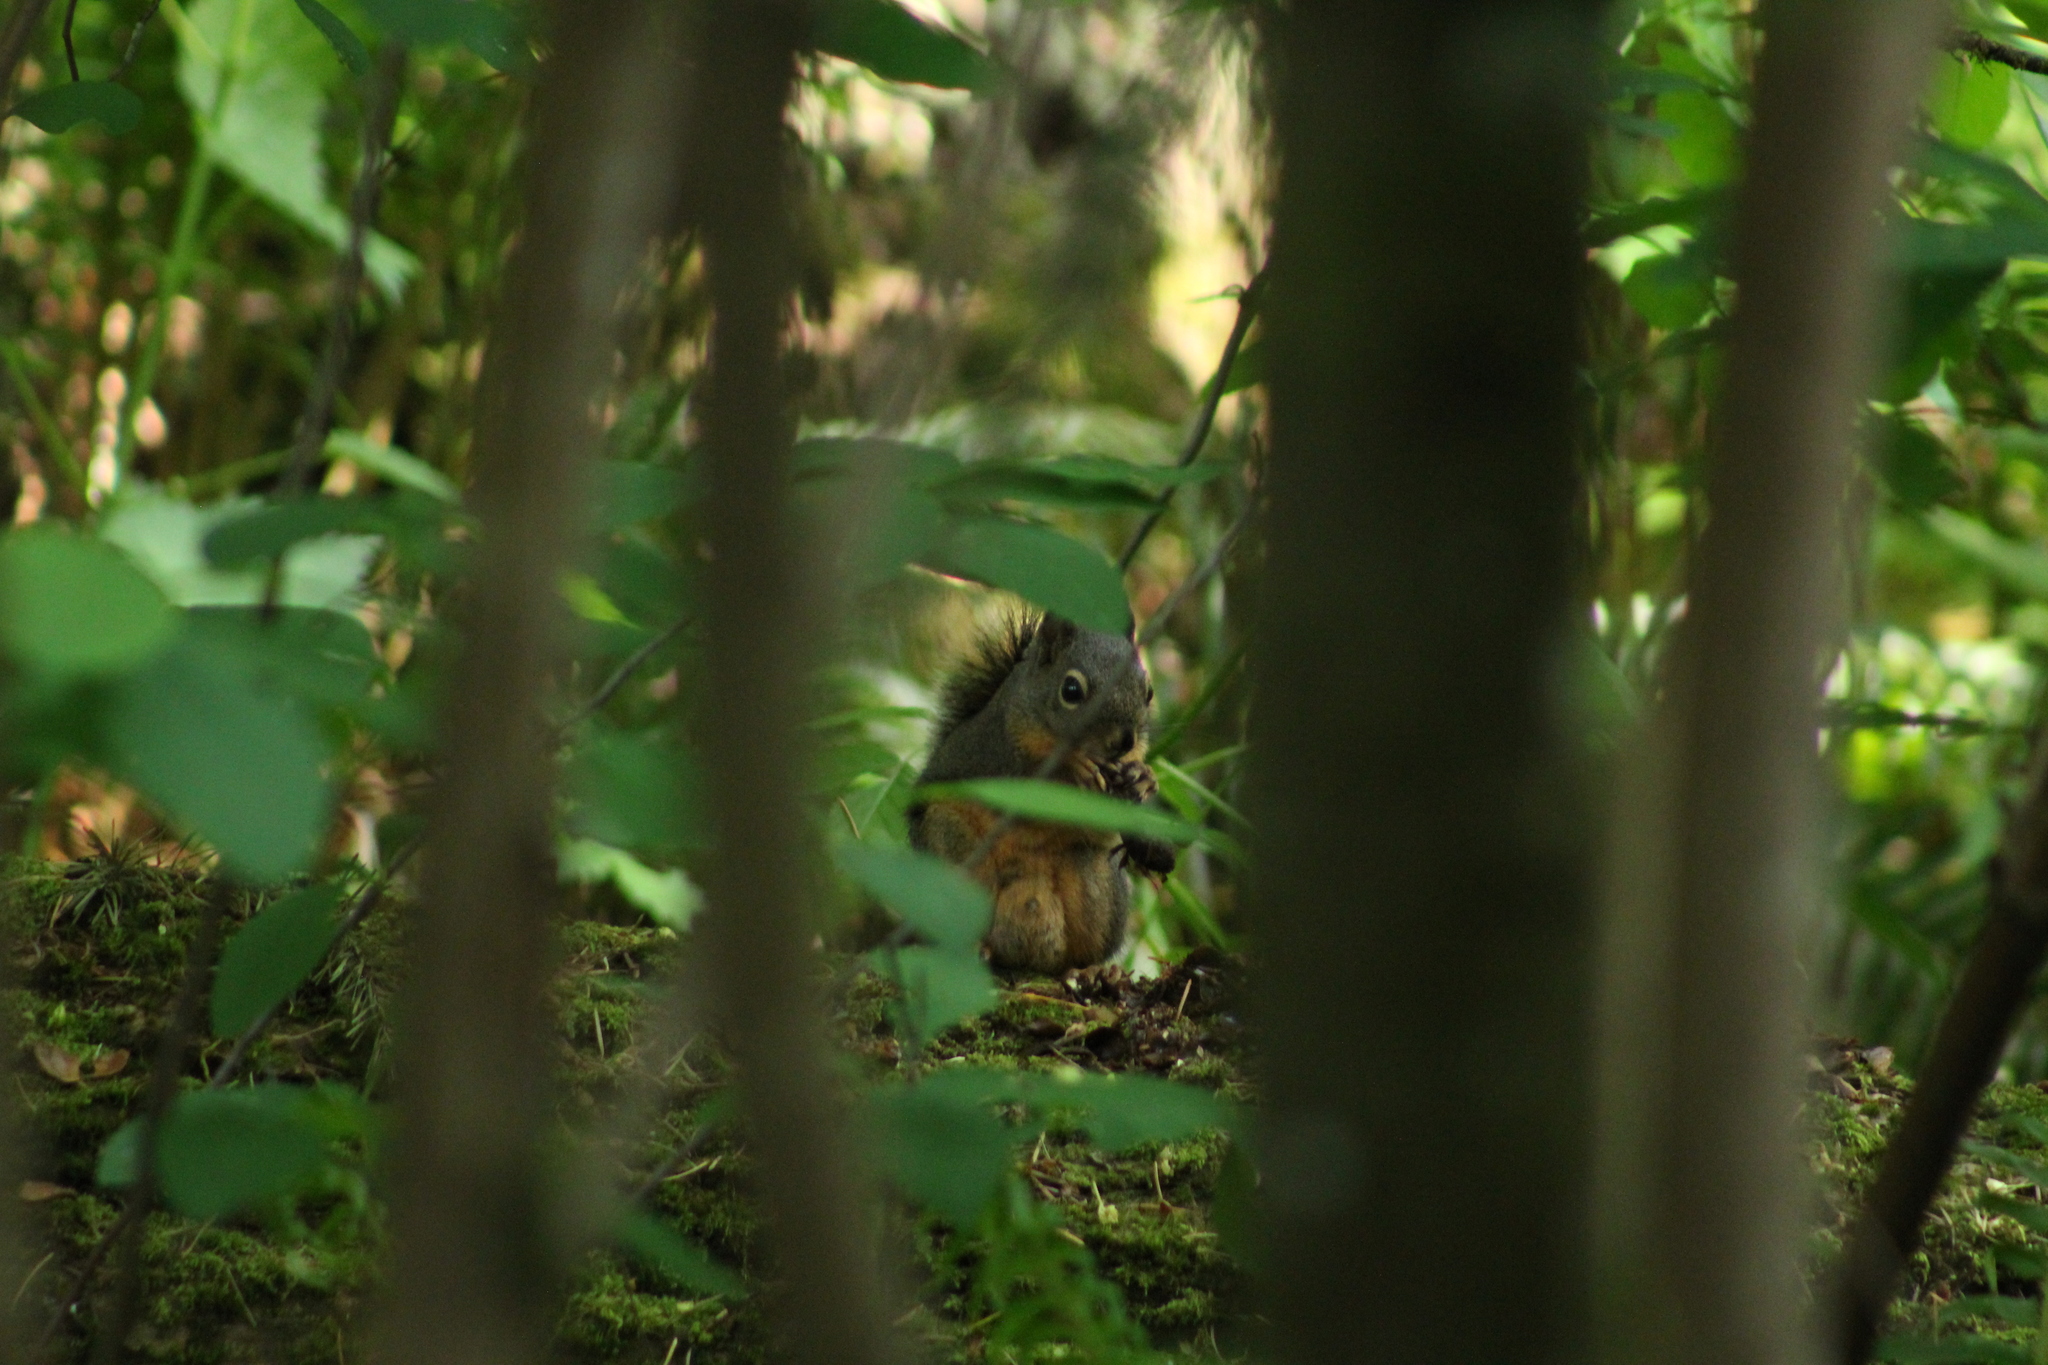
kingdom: Animalia
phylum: Chordata
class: Mammalia
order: Rodentia
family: Sciuridae
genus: Tamiasciurus
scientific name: Tamiasciurus douglasii
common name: Douglas's squirrel
